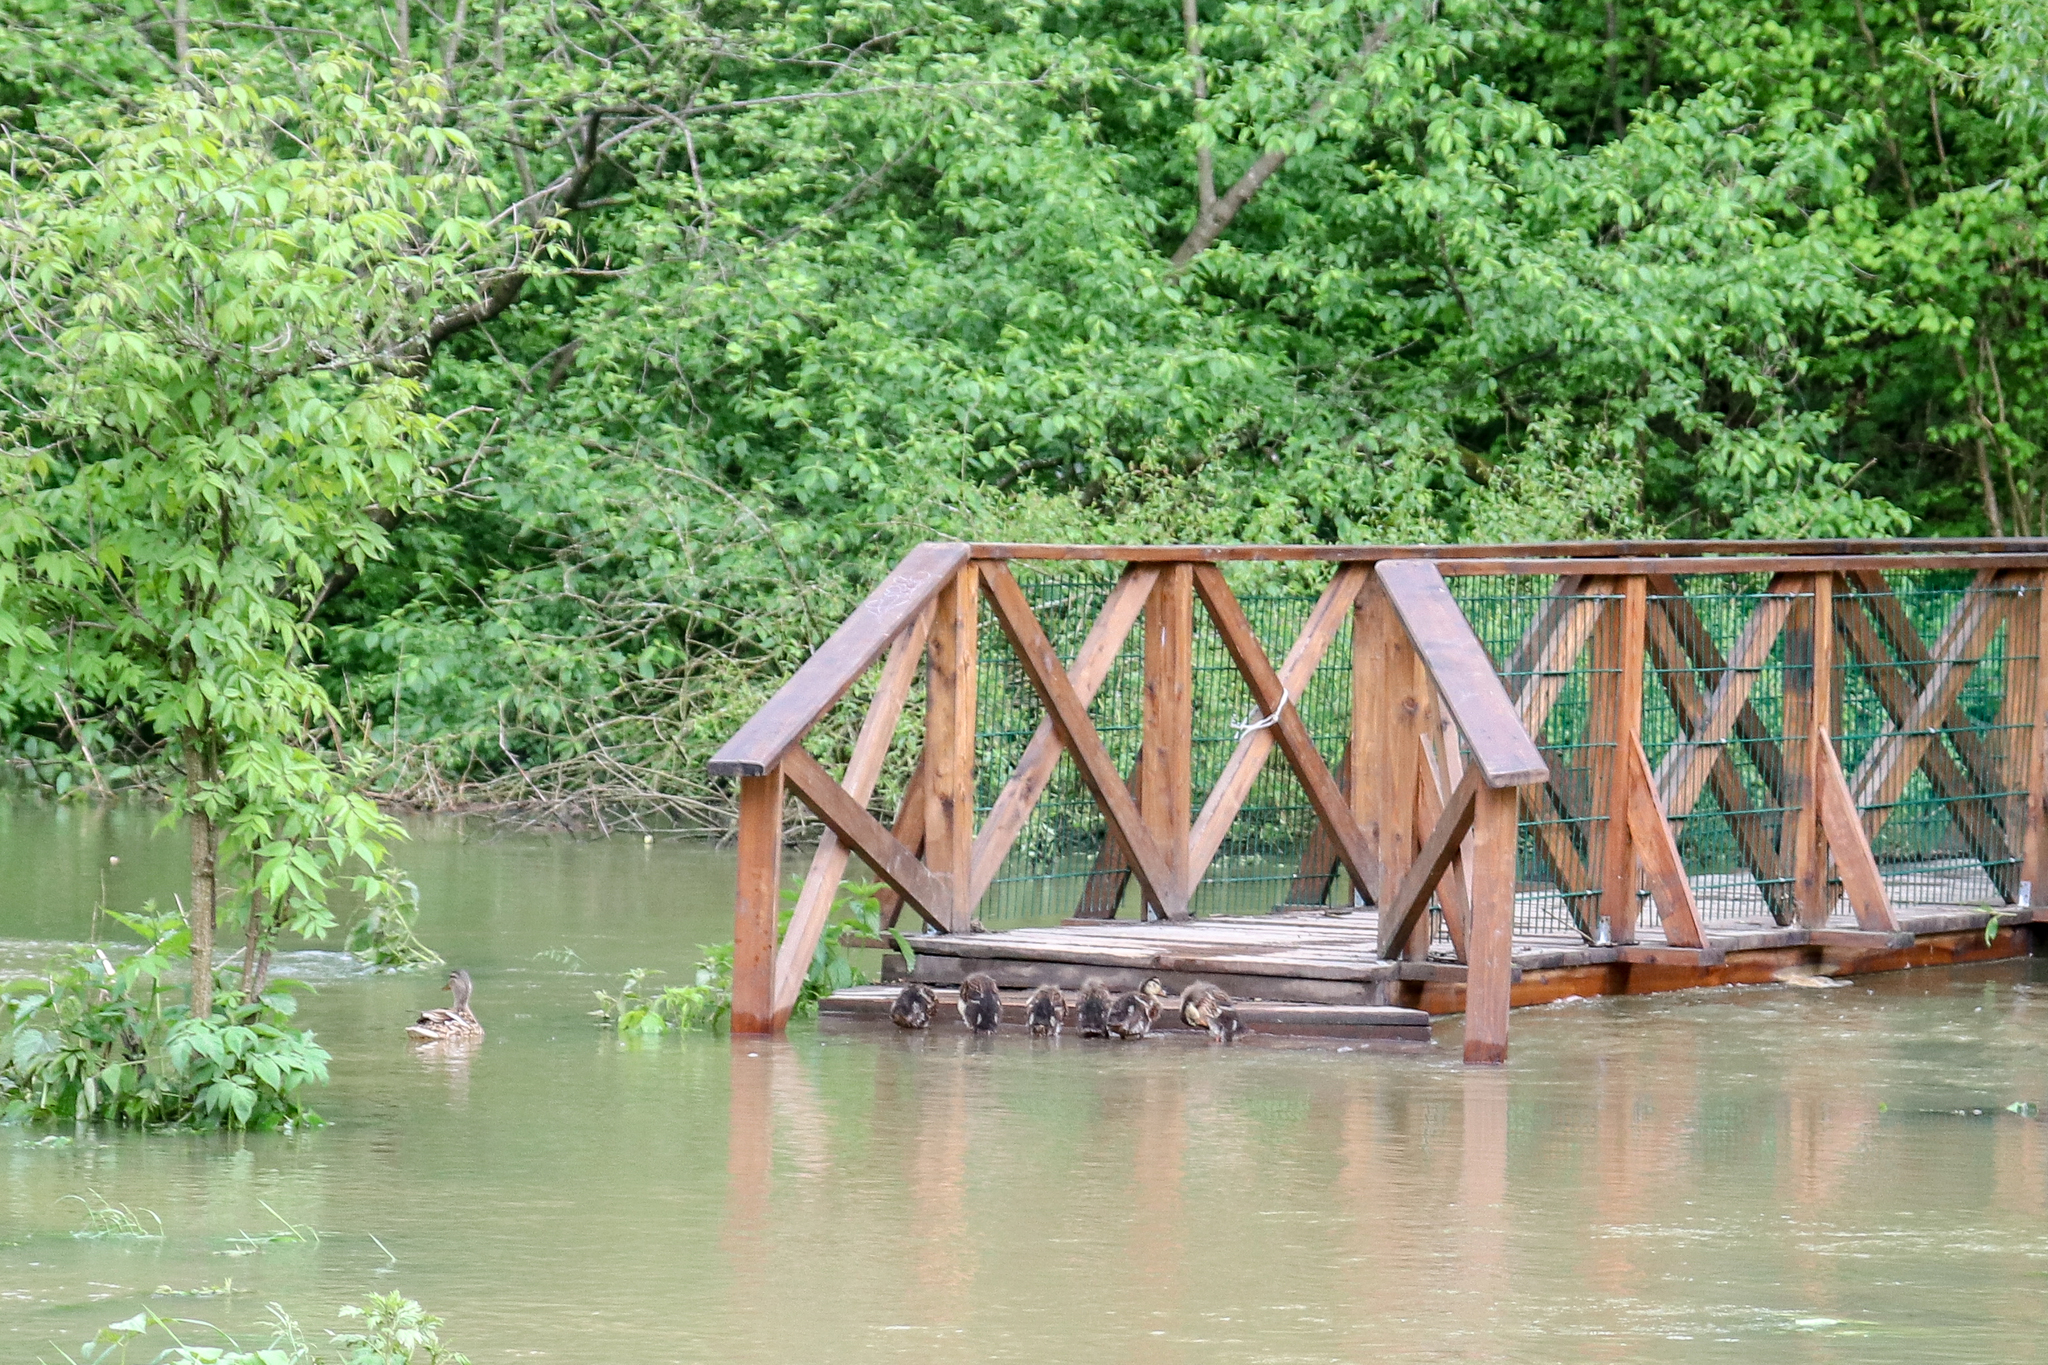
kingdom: Animalia
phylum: Chordata
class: Aves
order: Anseriformes
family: Anatidae
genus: Anas
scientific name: Anas platyrhynchos
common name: Mallard
